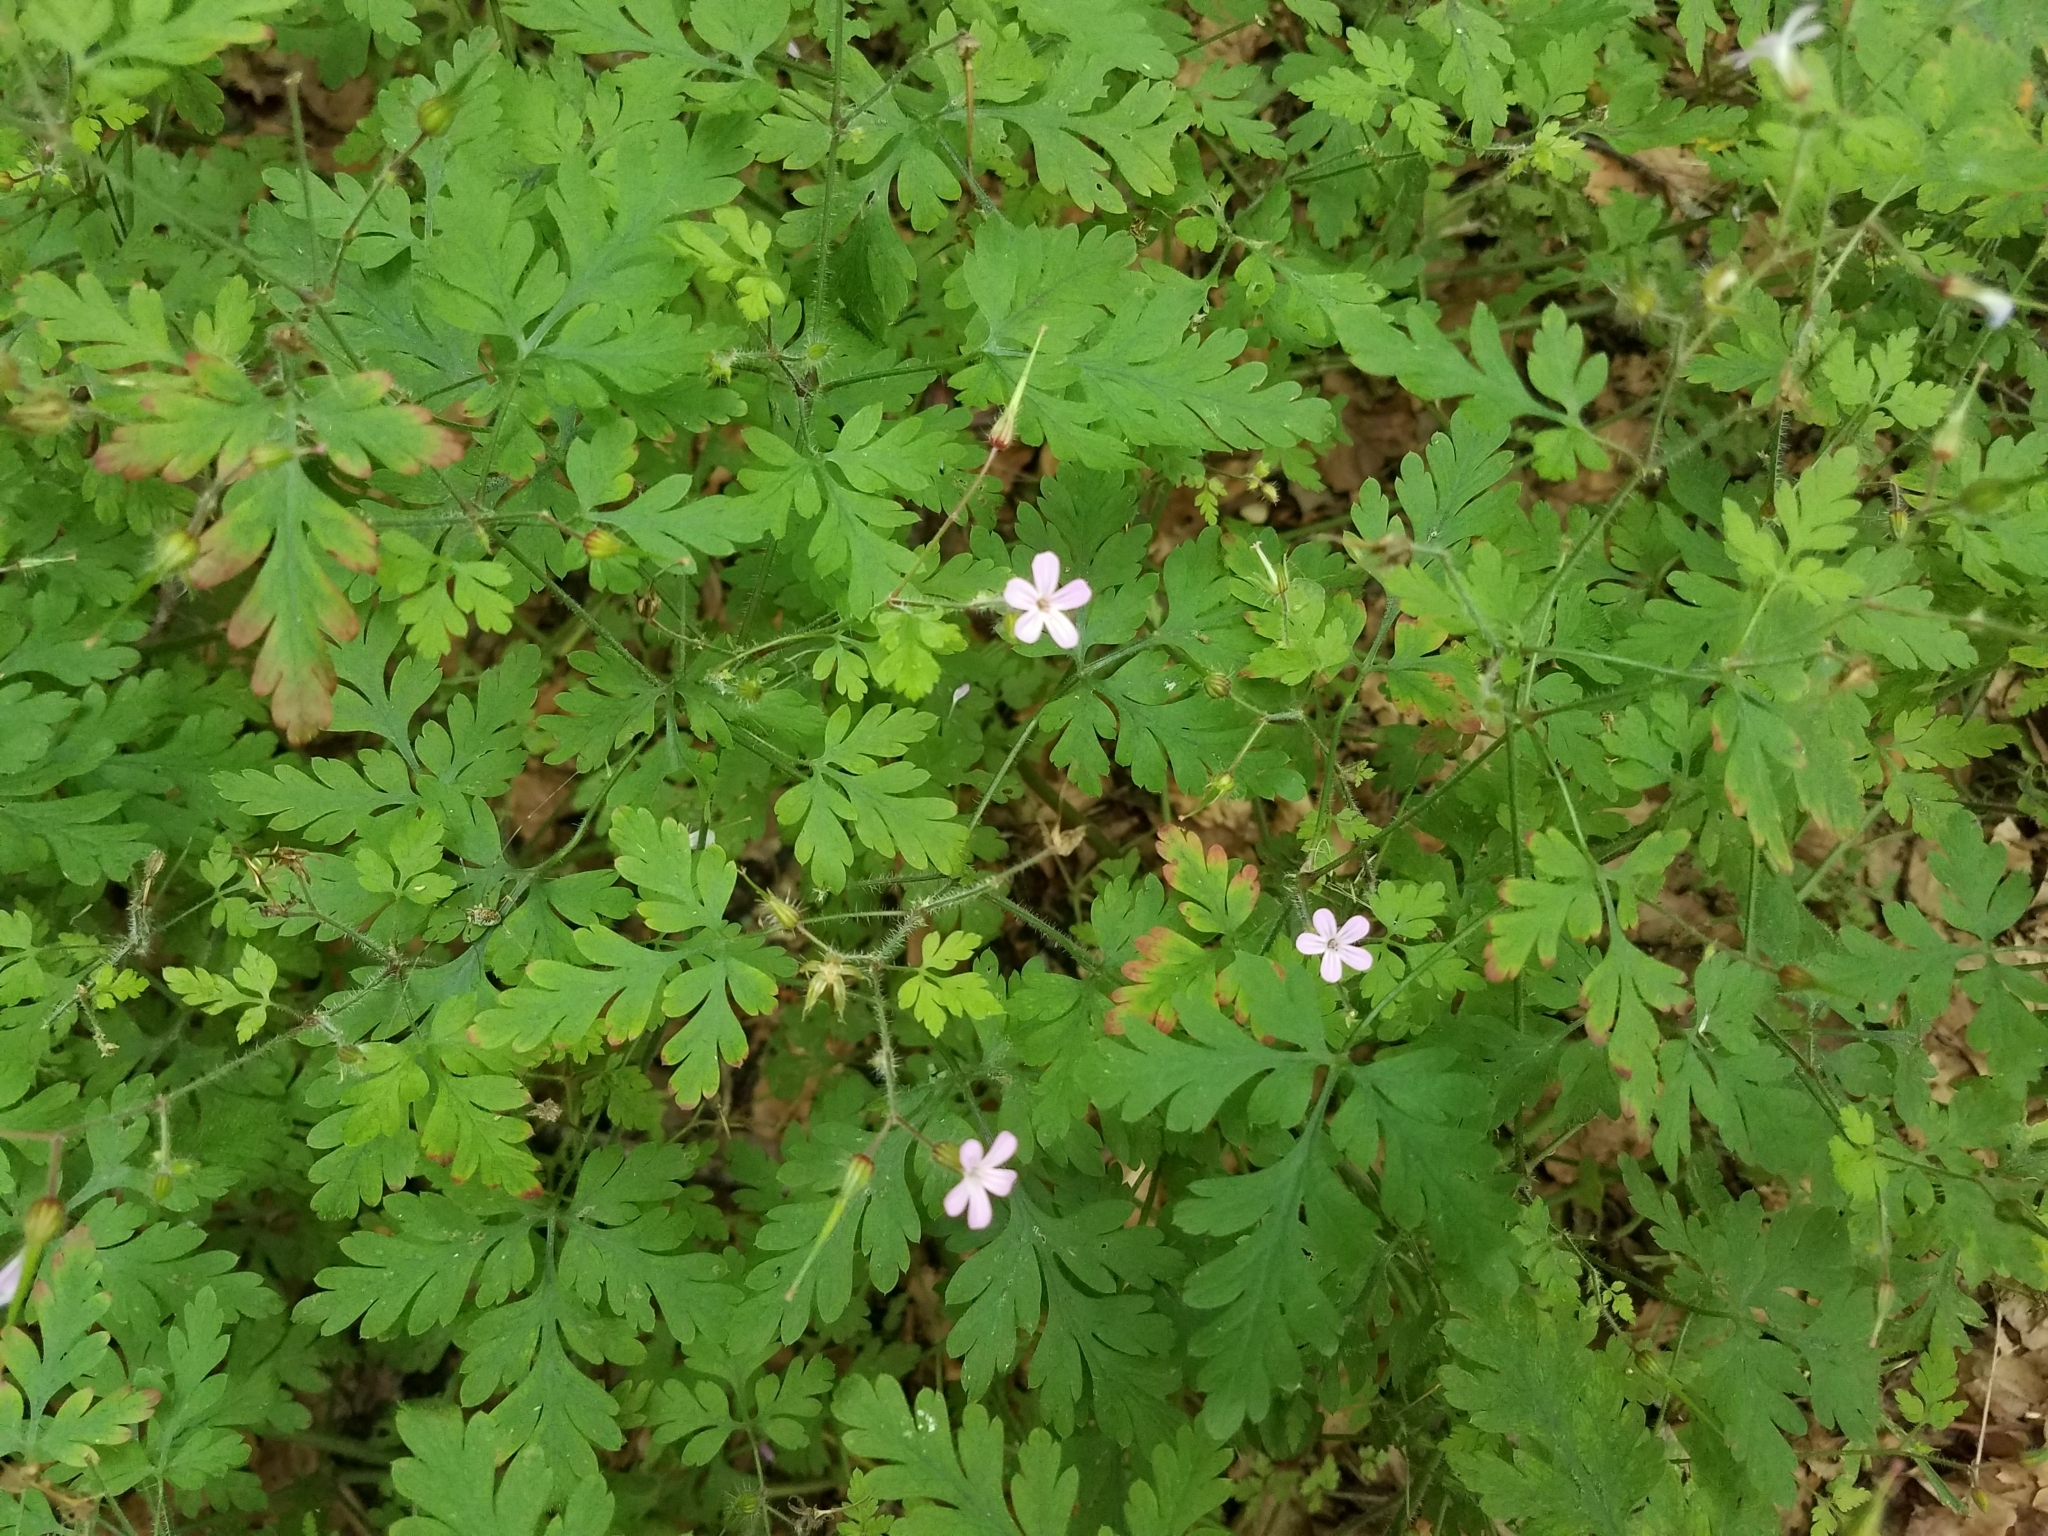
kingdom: Plantae
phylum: Tracheophyta
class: Magnoliopsida
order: Geraniales
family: Geraniaceae
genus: Geranium
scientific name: Geranium robertianum
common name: Herb-robert
